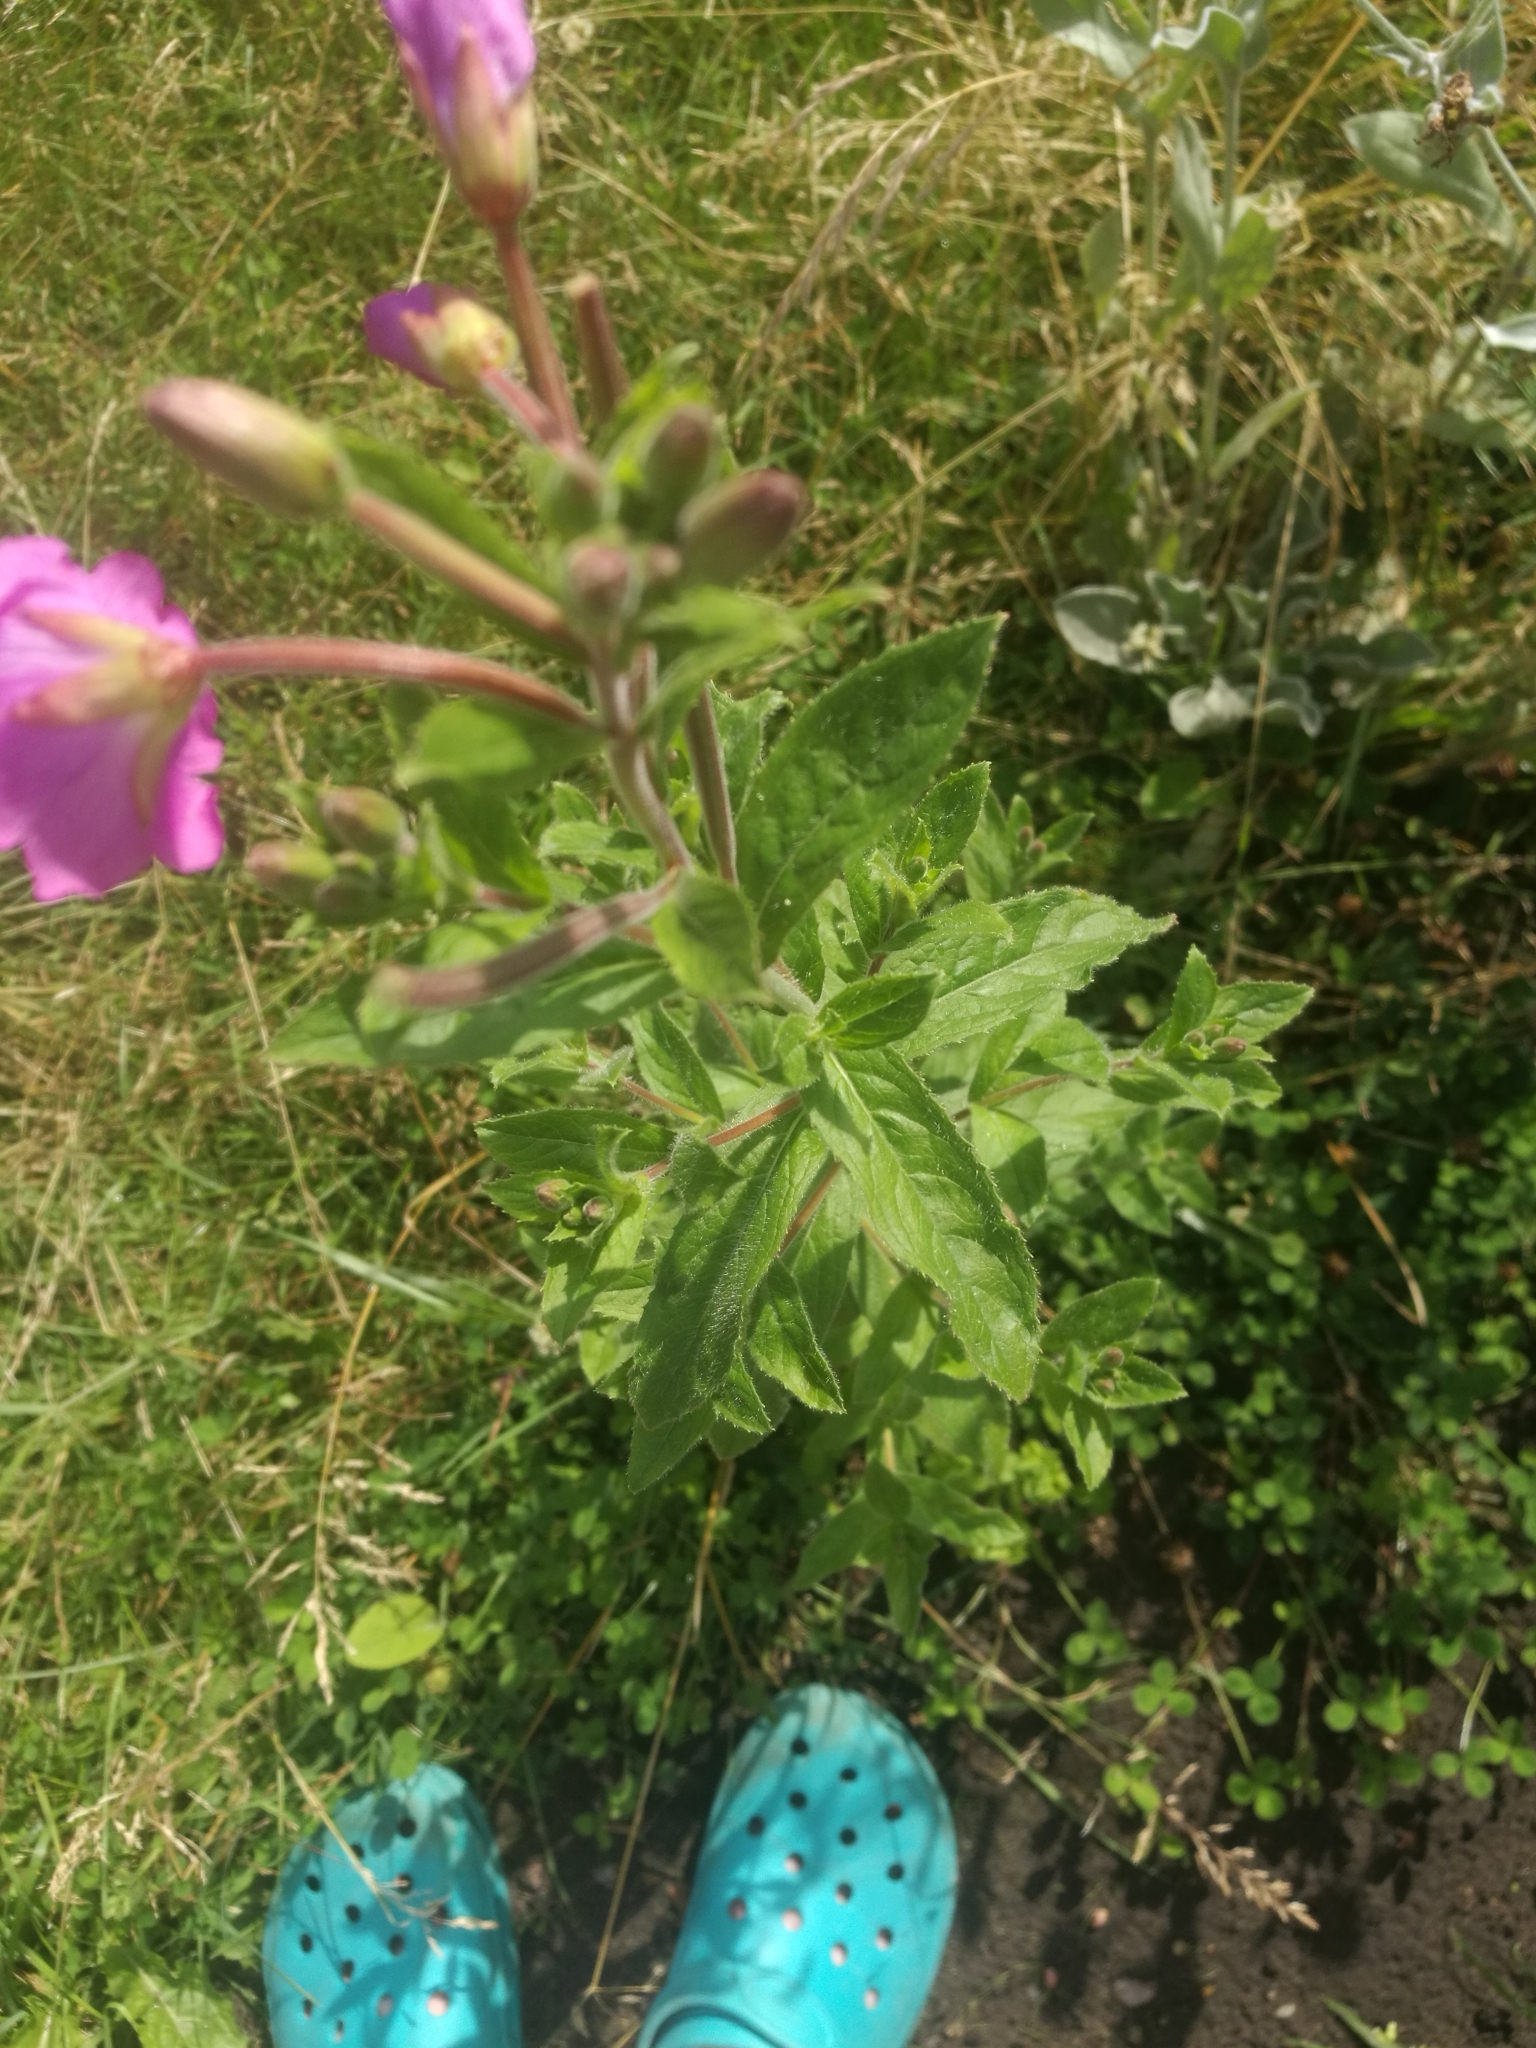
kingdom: Plantae
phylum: Tracheophyta
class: Magnoliopsida
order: Myrtales
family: Onagraceae
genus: Epilobium
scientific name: Epilobium hirsutum
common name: Great willowherb
